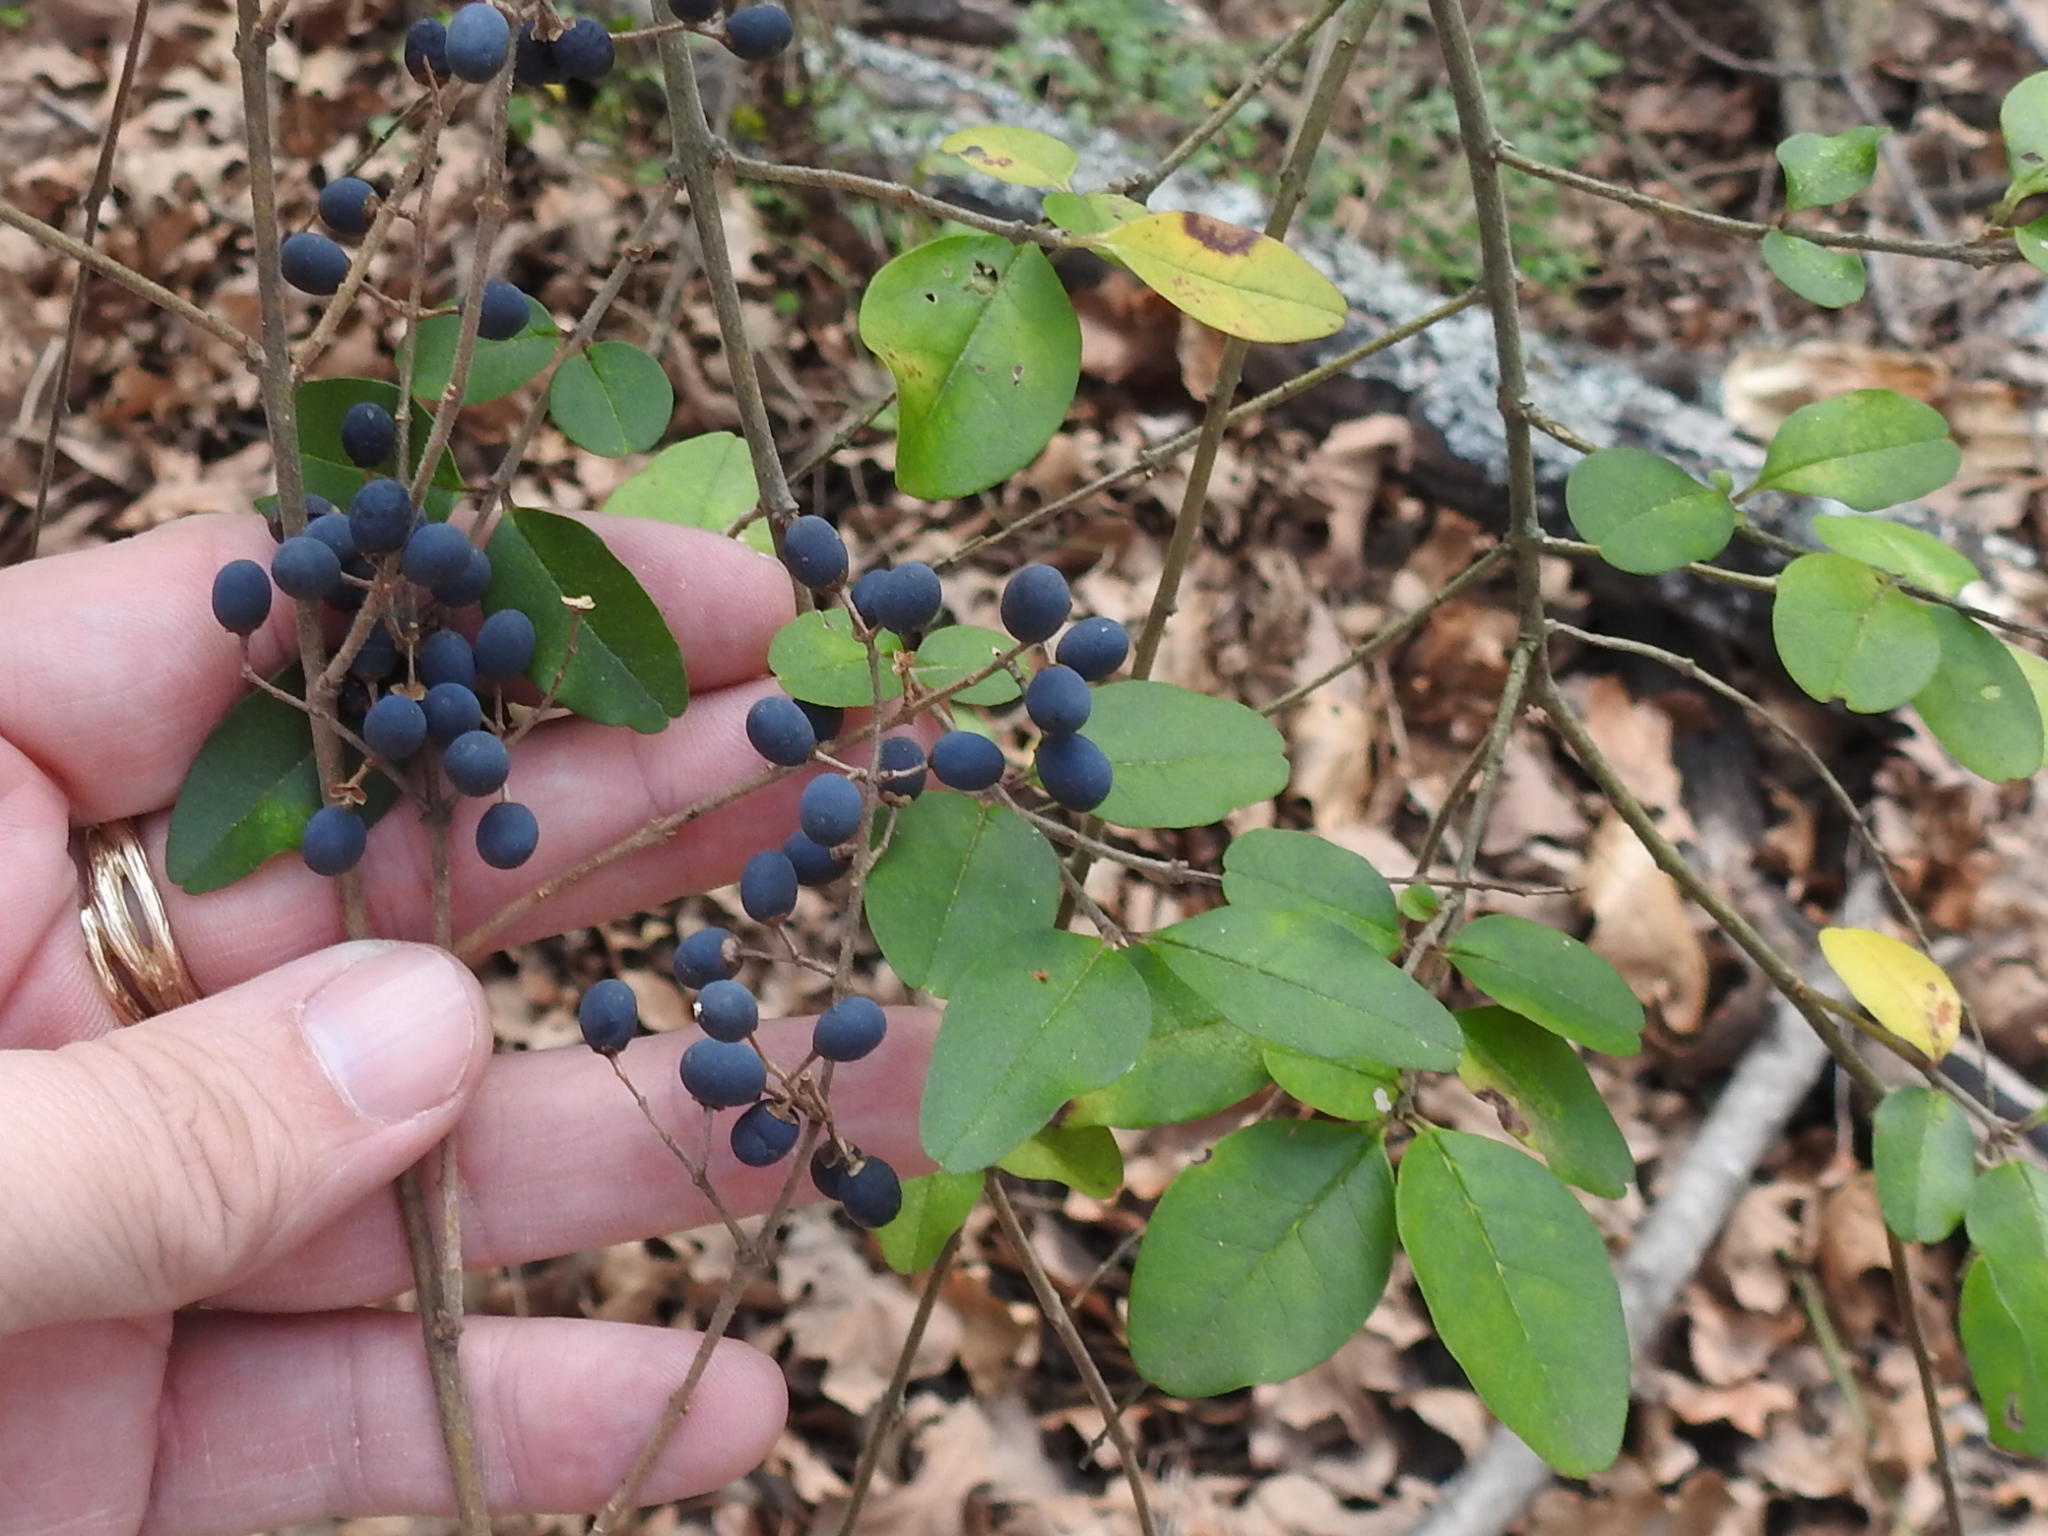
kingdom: Plantae
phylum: Tracheophyta
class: Magnoliopsida
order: Lamiales
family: Oleaceae
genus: Ligustrum
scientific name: Ligustrum sinense
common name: Chinese privet
